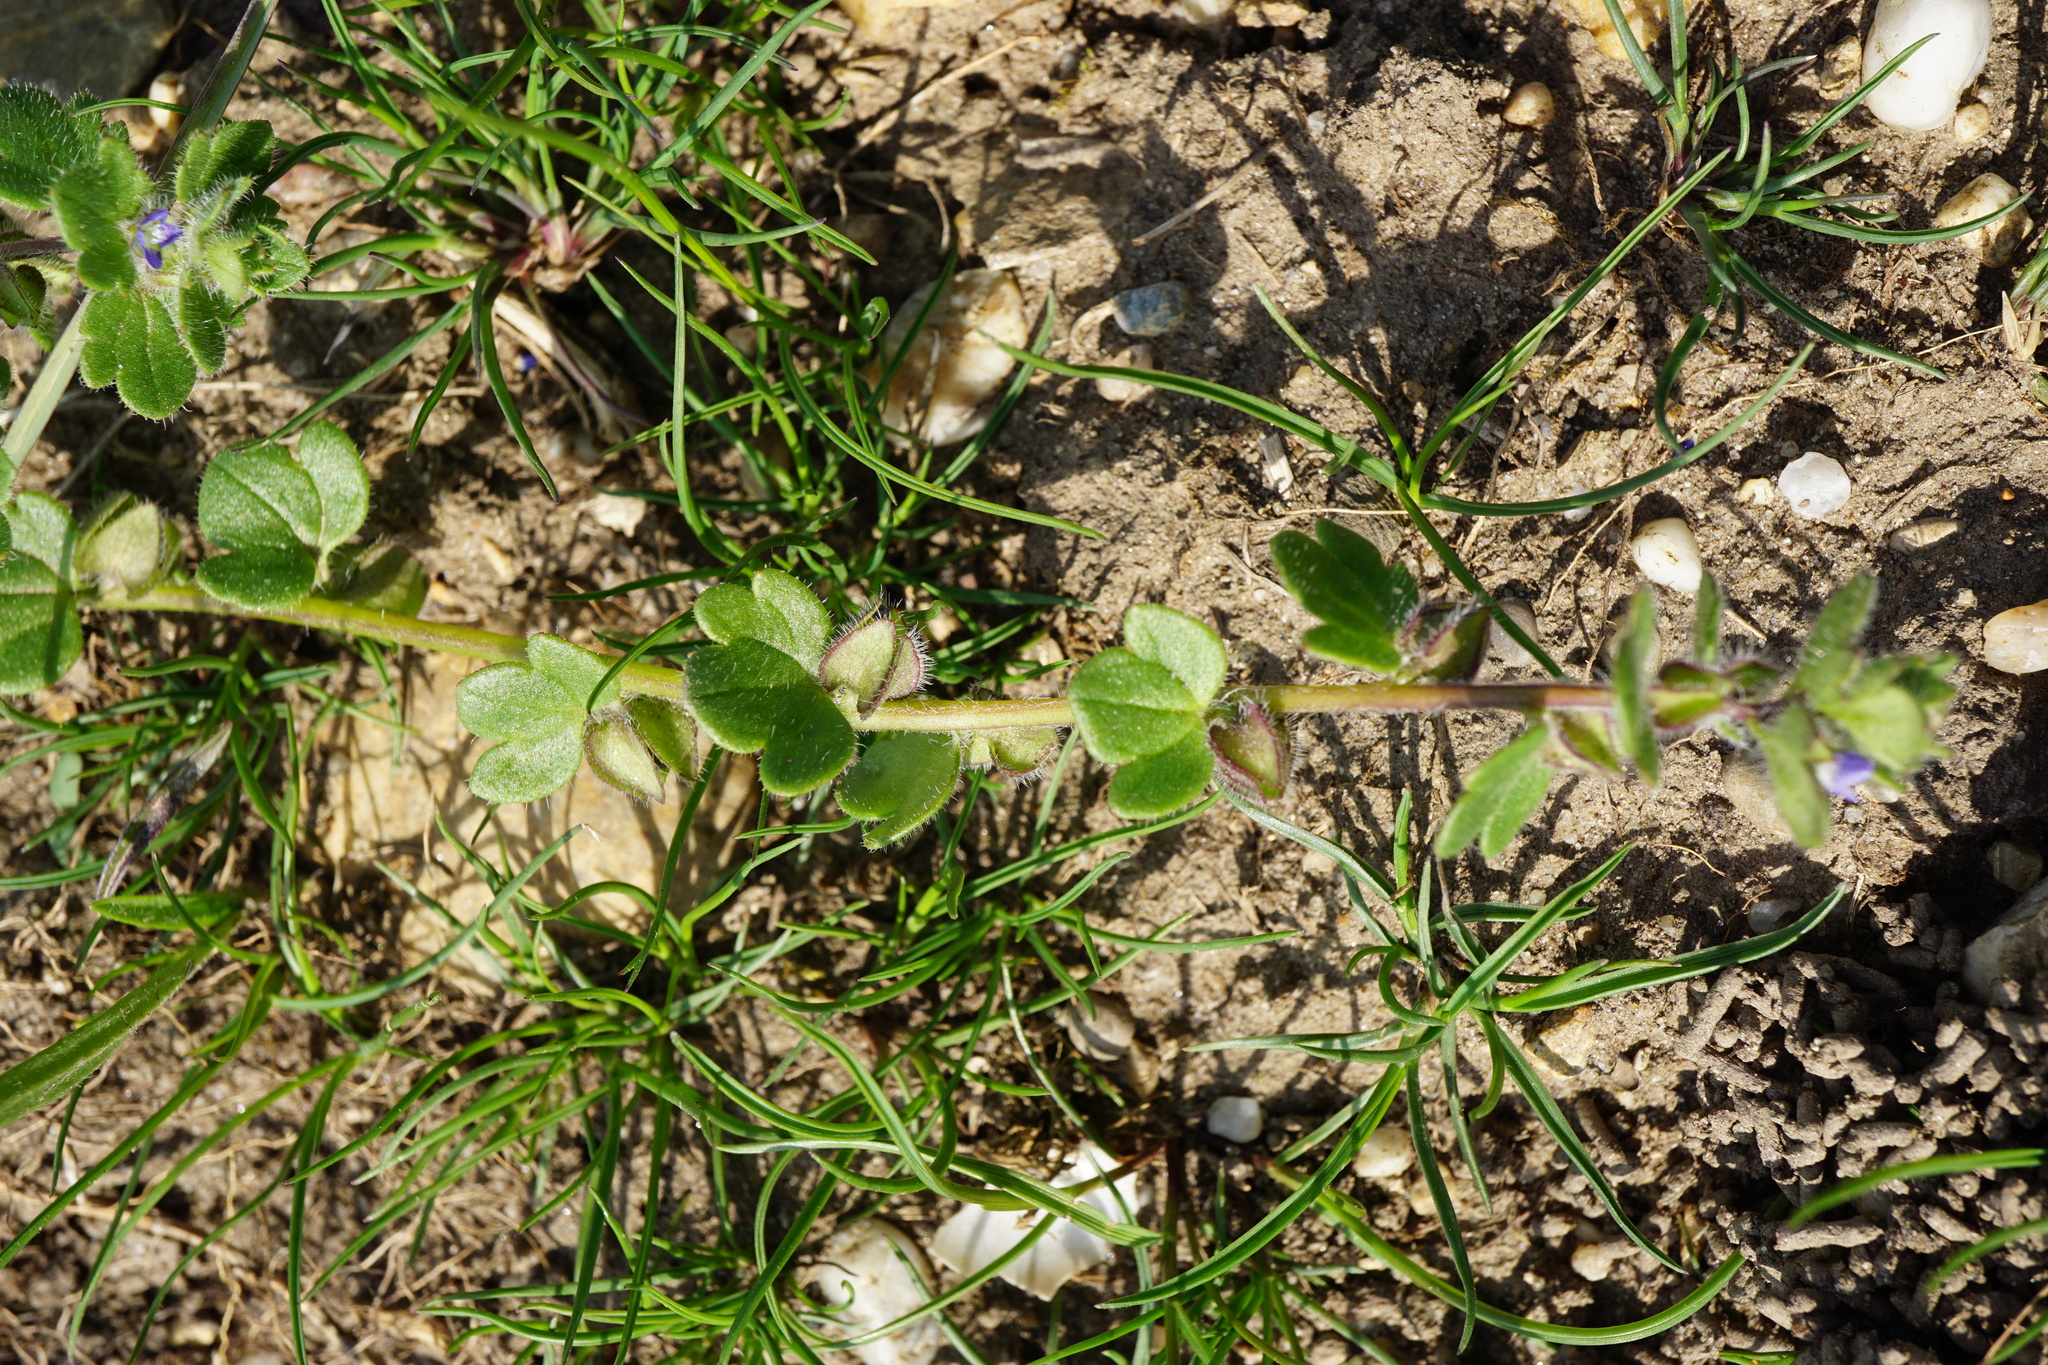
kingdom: Plantae
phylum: Tracheophyta
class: Magnoliopsida
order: Lamiales
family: Plantaginaceae
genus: Veronica
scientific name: Veronica triloba
